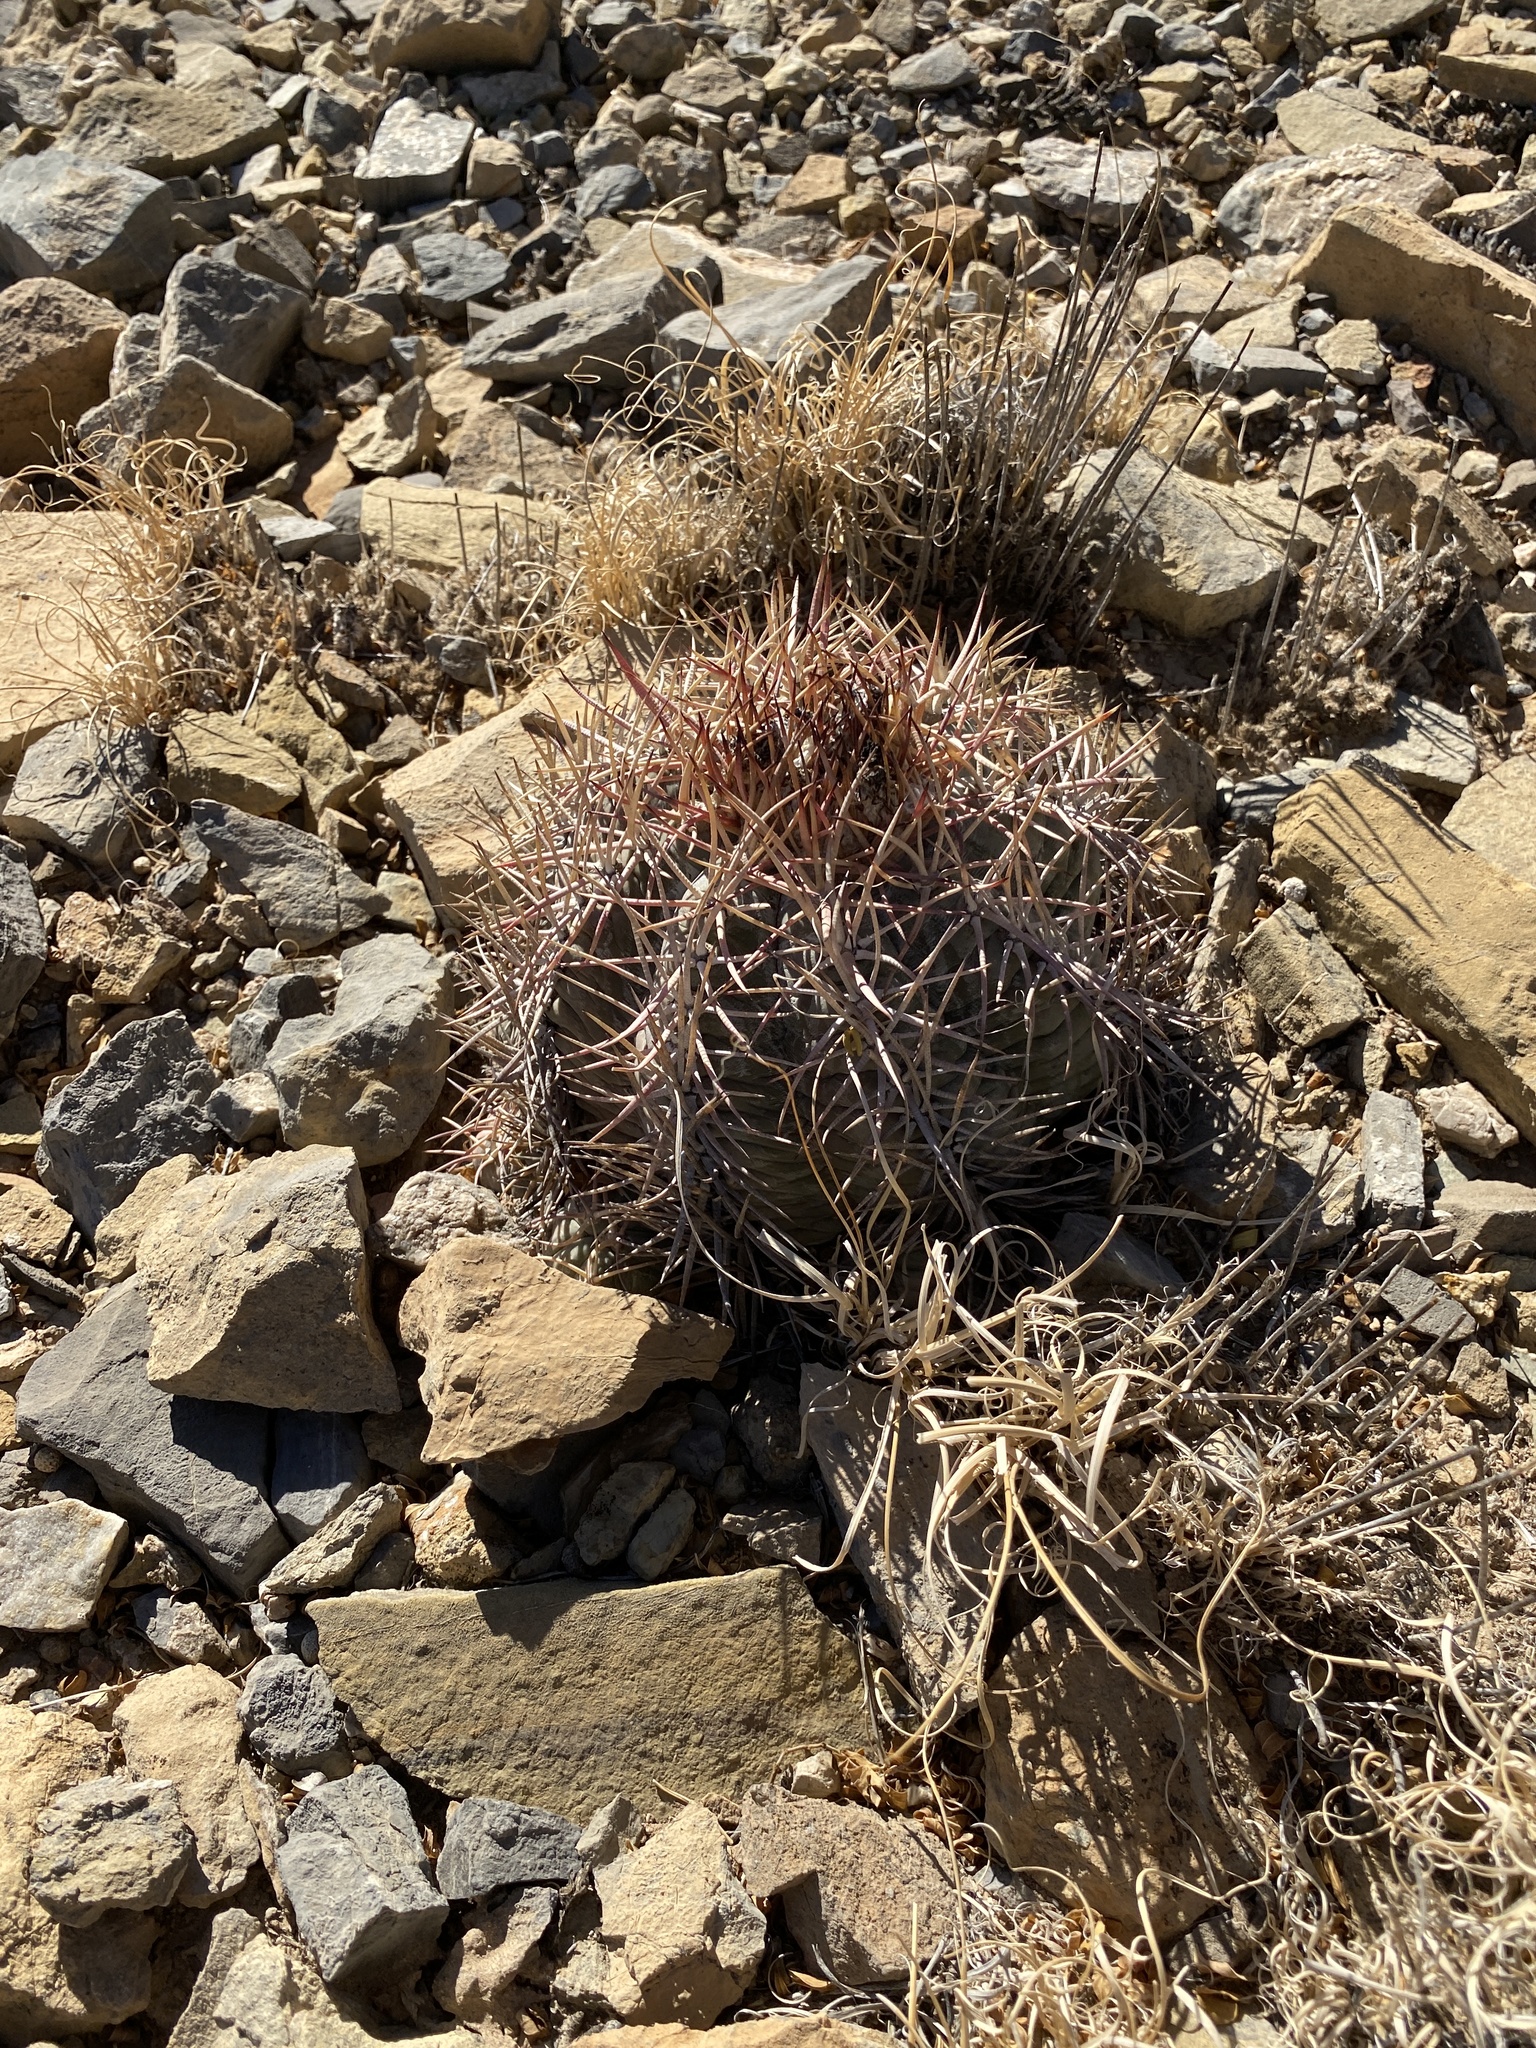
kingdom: Plantae
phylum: Tracheophyta
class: Magnoliopsida
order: Caryophyllales
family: Cactaceae
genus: Echinocactus
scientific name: Echinocactus horizonthalonius
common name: Devilshead
